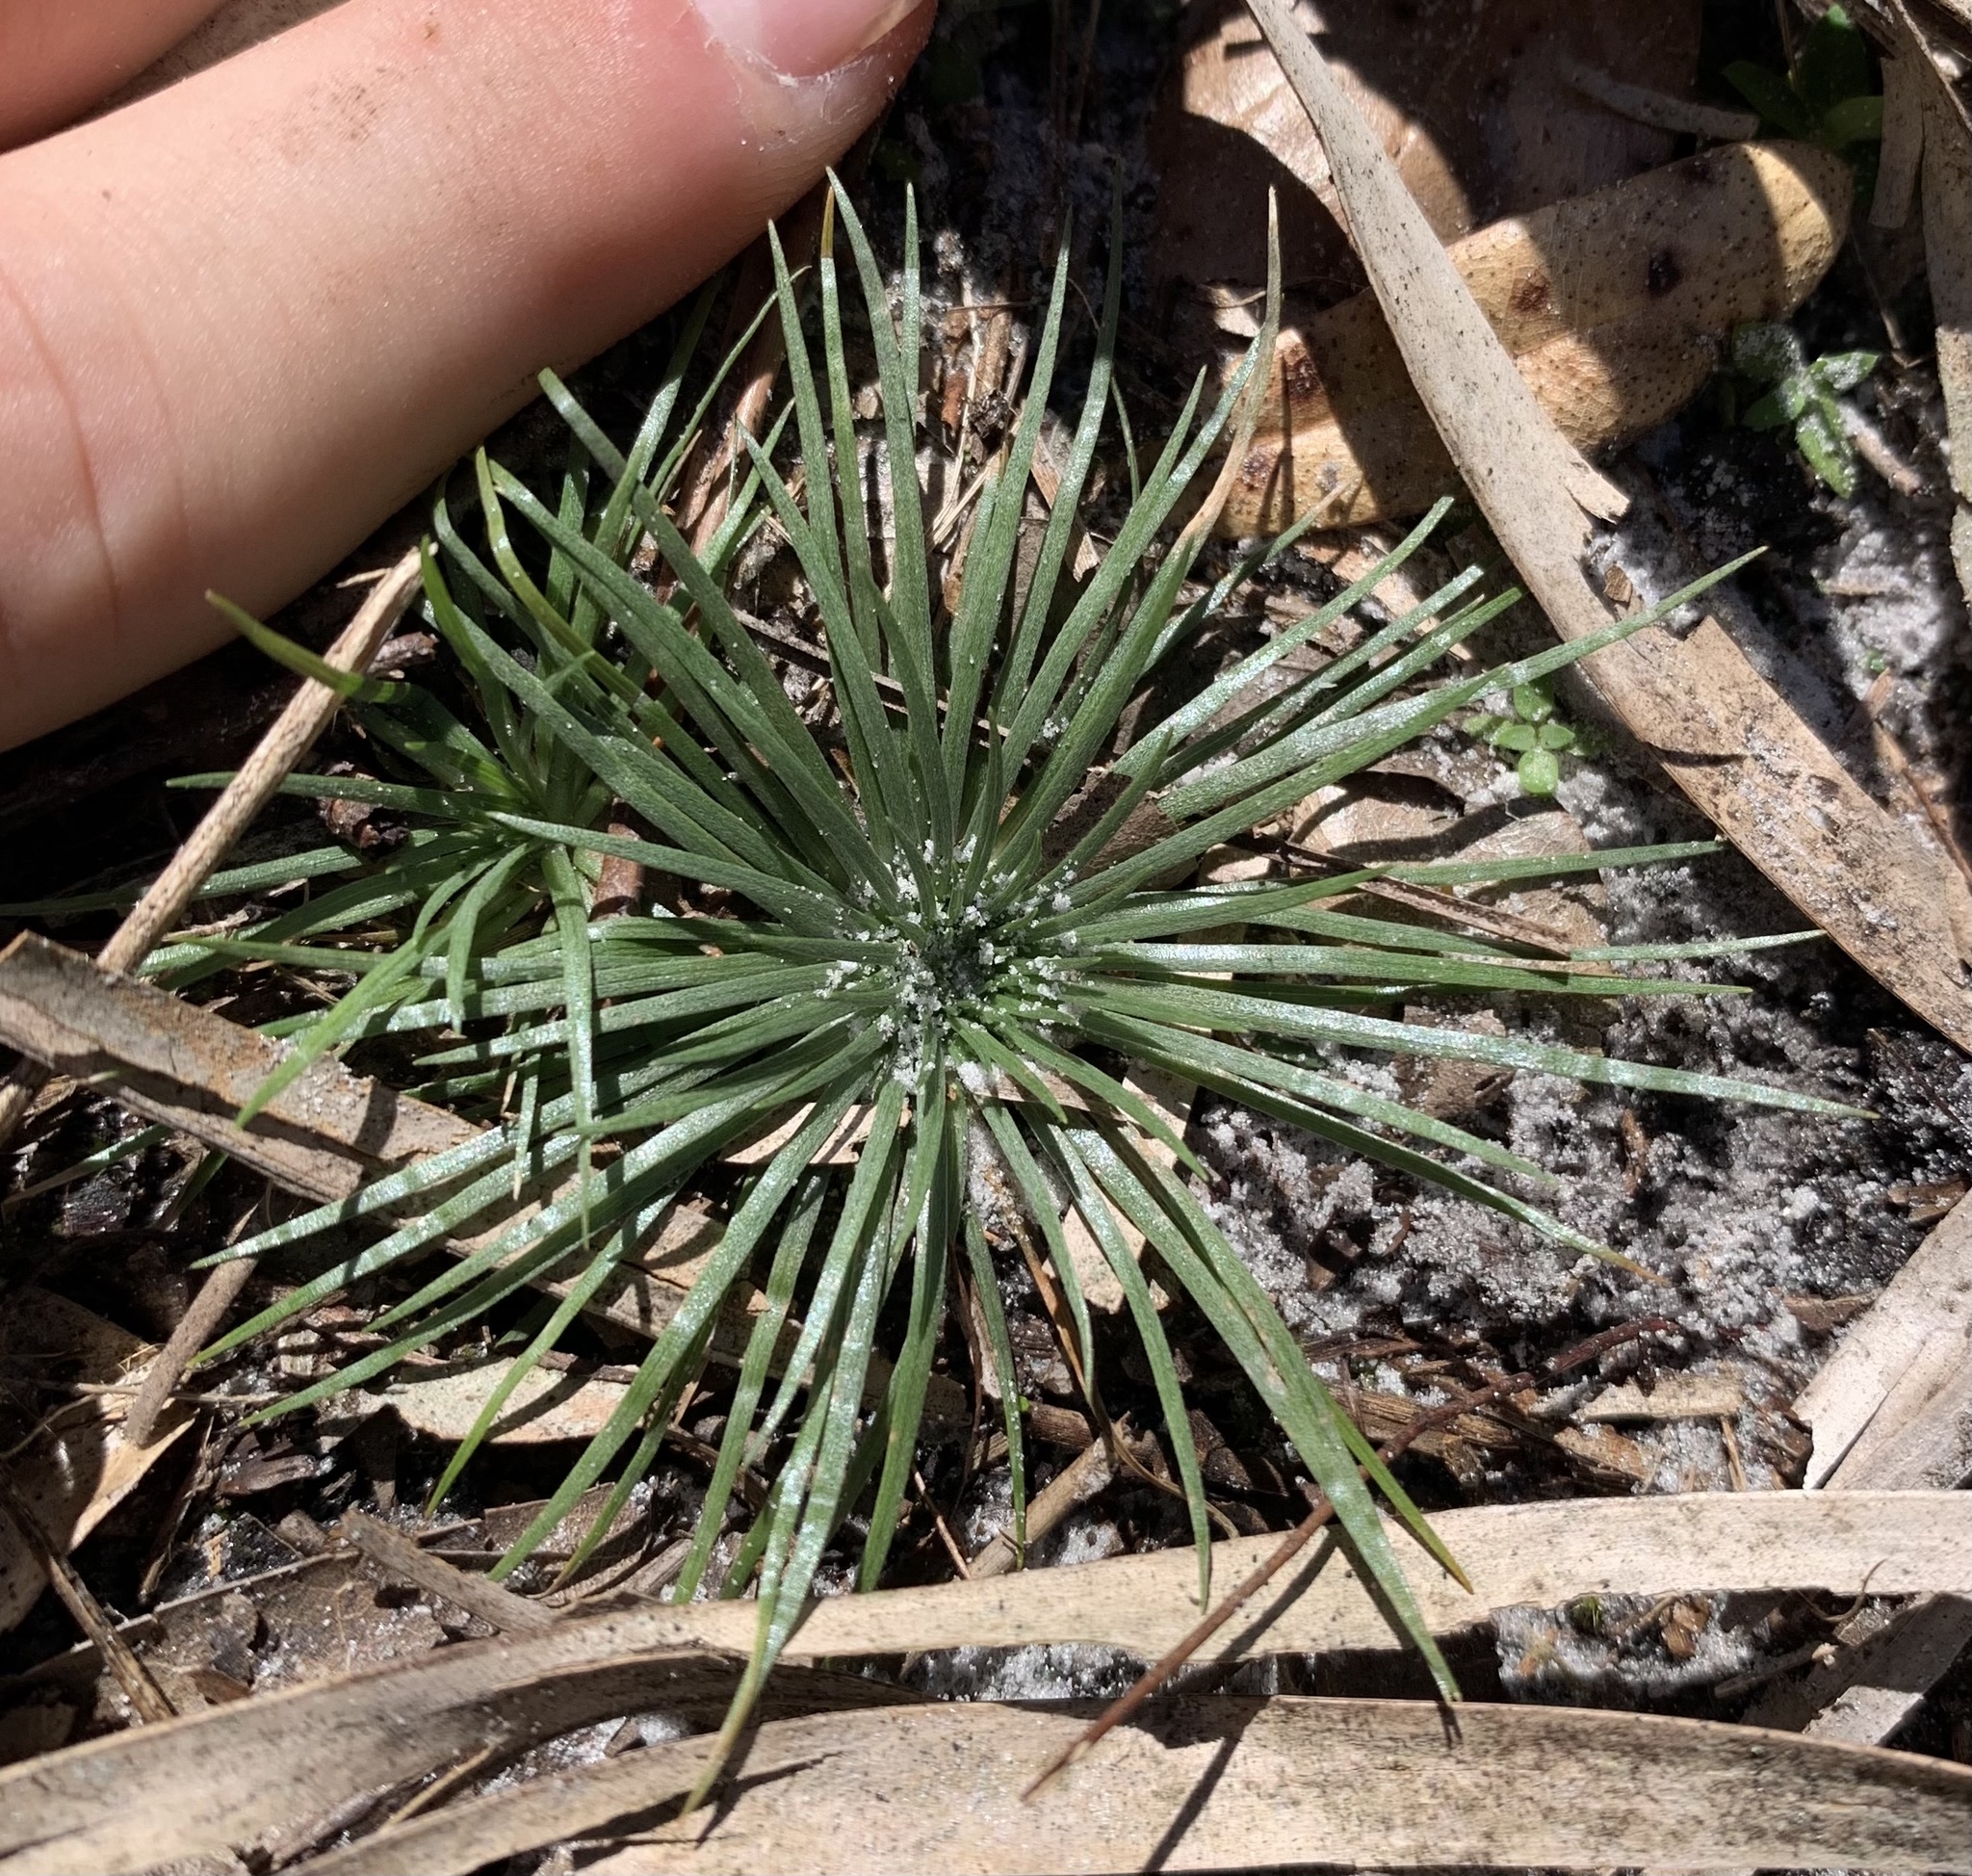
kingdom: Plantae
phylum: Tracheophyta
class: Liliopsida
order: Poales
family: Eriocaulaceae
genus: Syngonanthus
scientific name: Syngonanthus flavidulus
